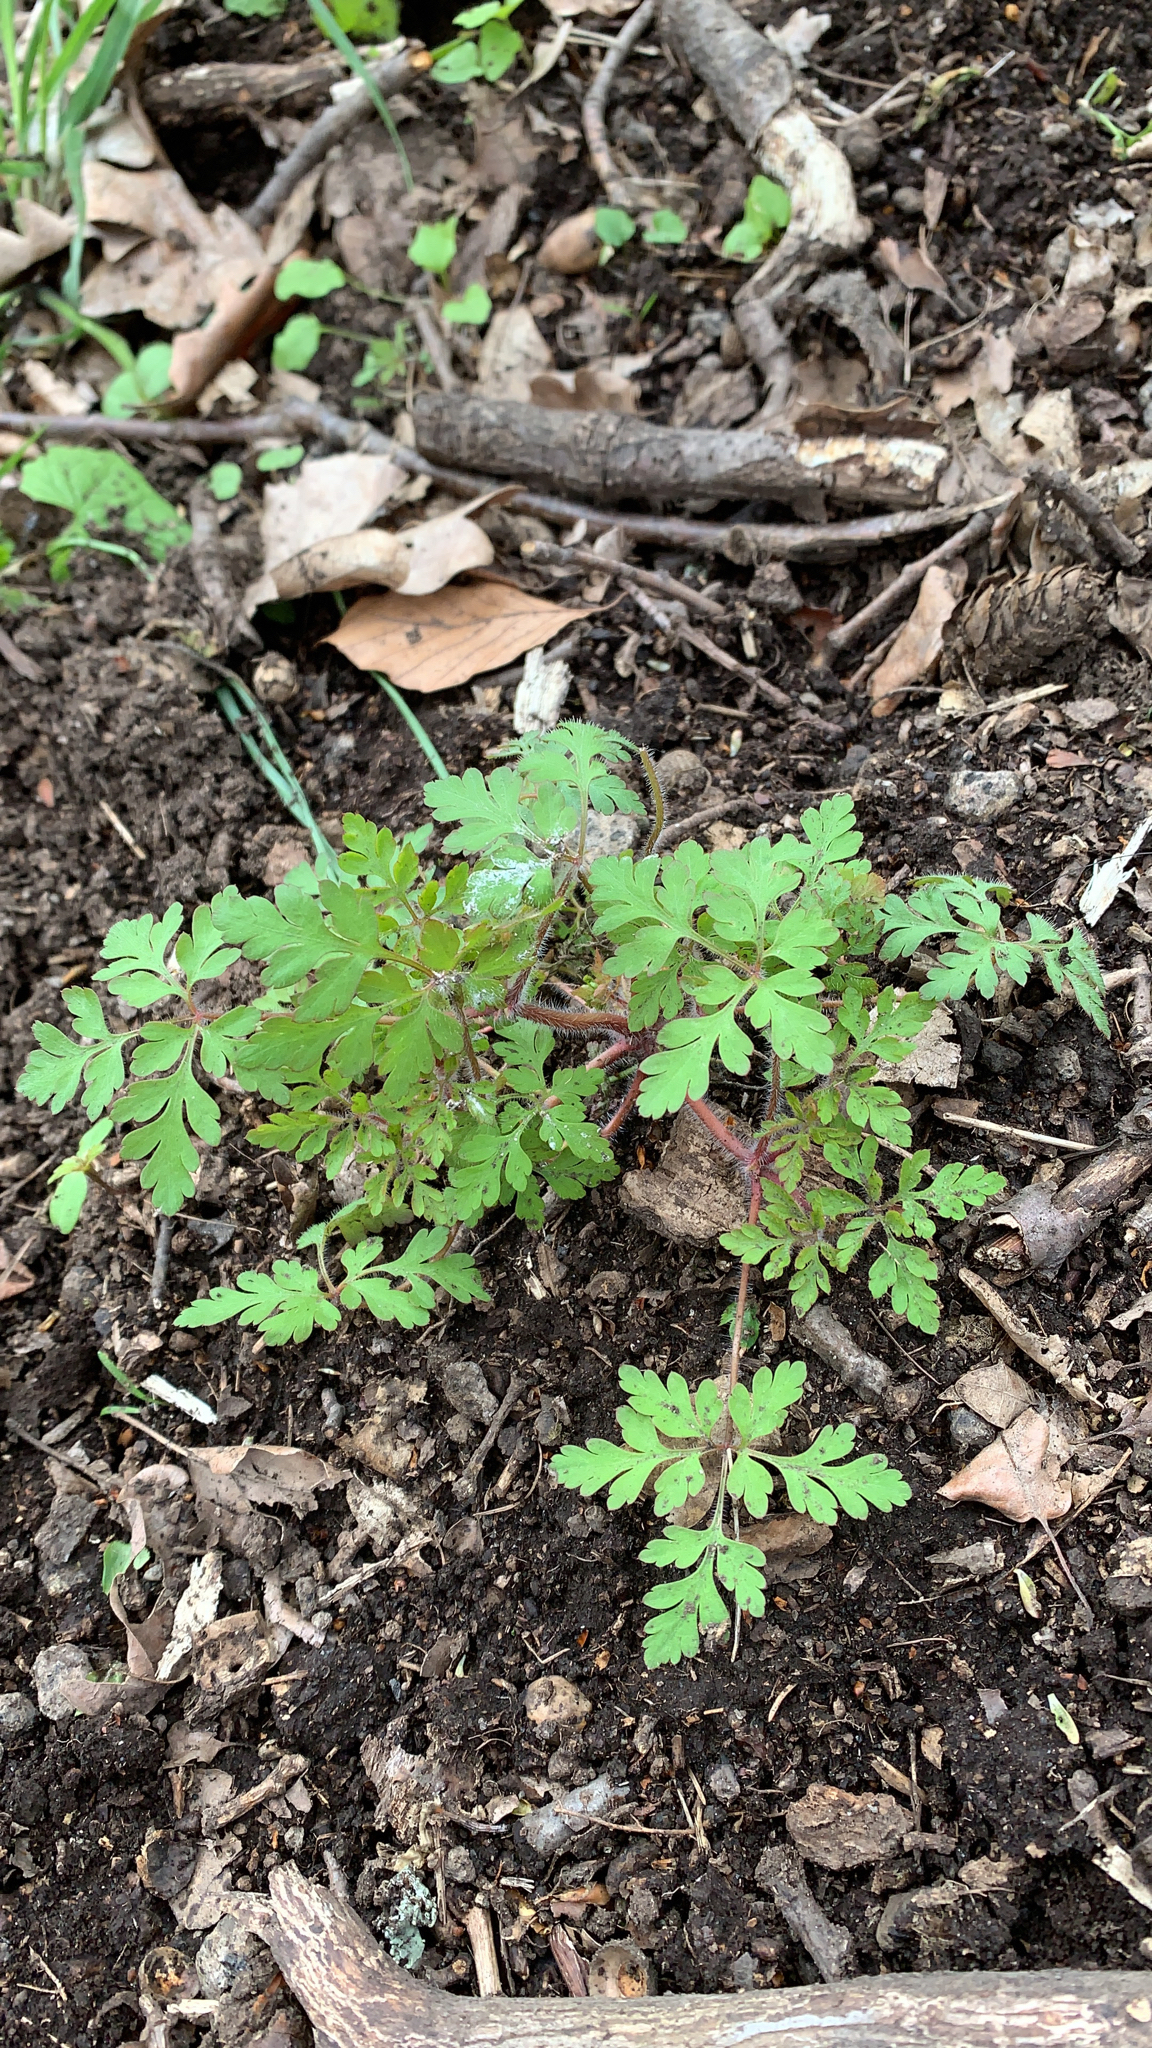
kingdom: Plantae
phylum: Tracheophyta
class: Magnoliopsida
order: Geraniales
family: Geraniaceae
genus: Geranium
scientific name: Geranium robertianum
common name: Herb-robert
